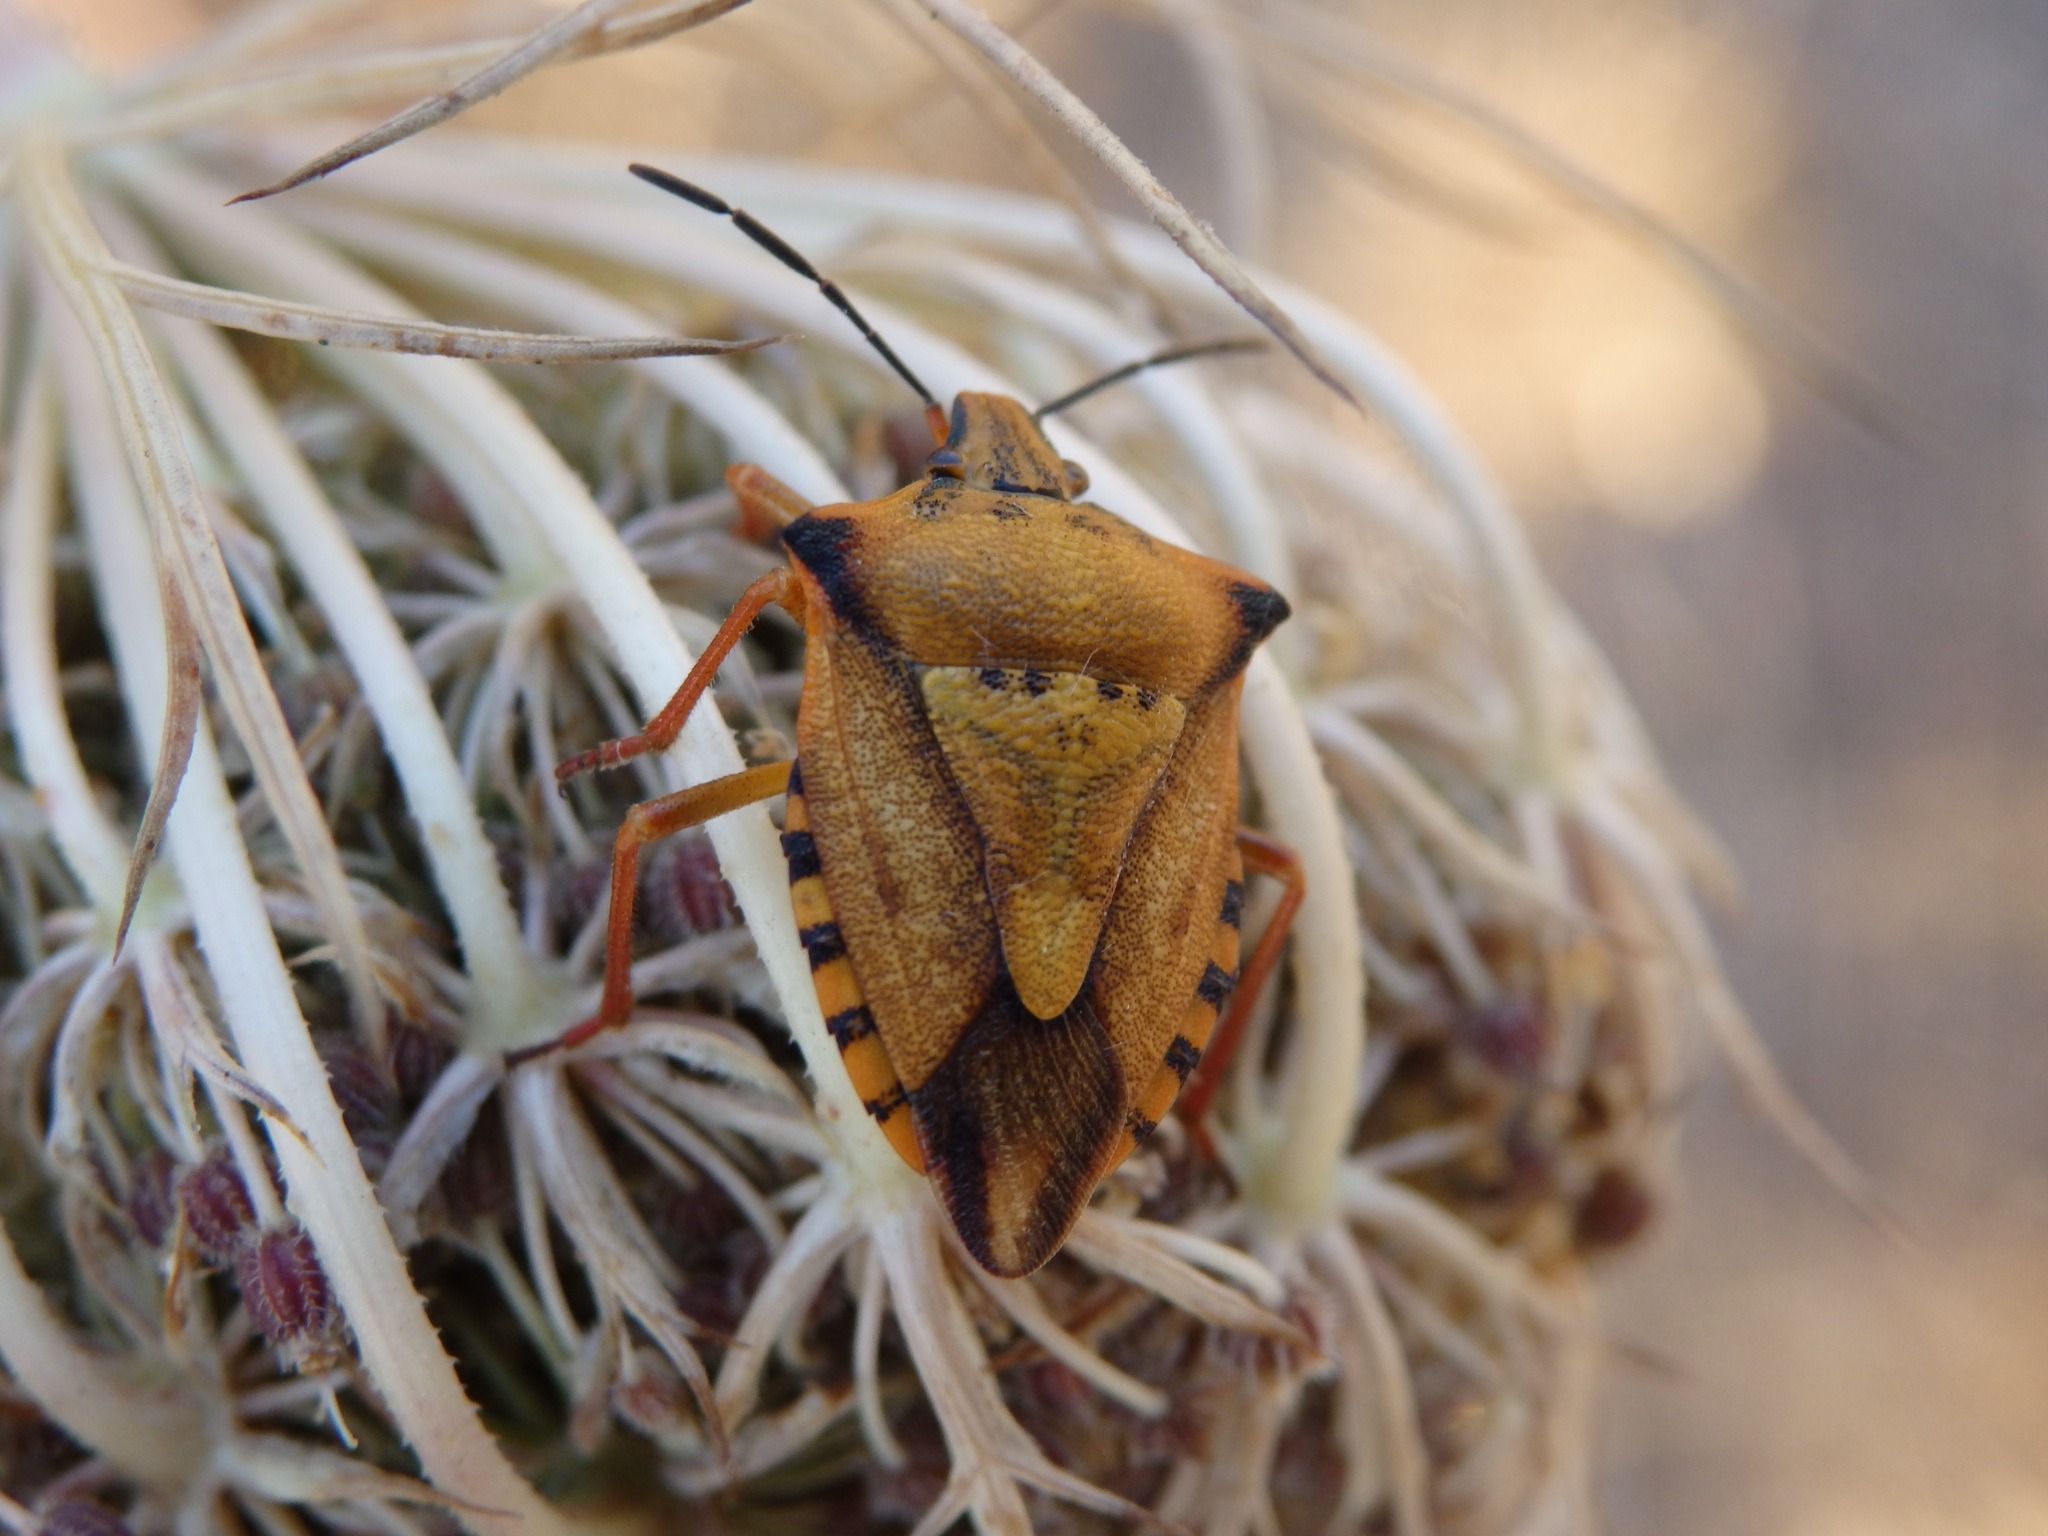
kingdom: Animalia
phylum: Arthropoda
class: Insecta
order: Hemiptera
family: Pentatomidae
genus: Carpocoris
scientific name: Carpocoris mediterraneus
